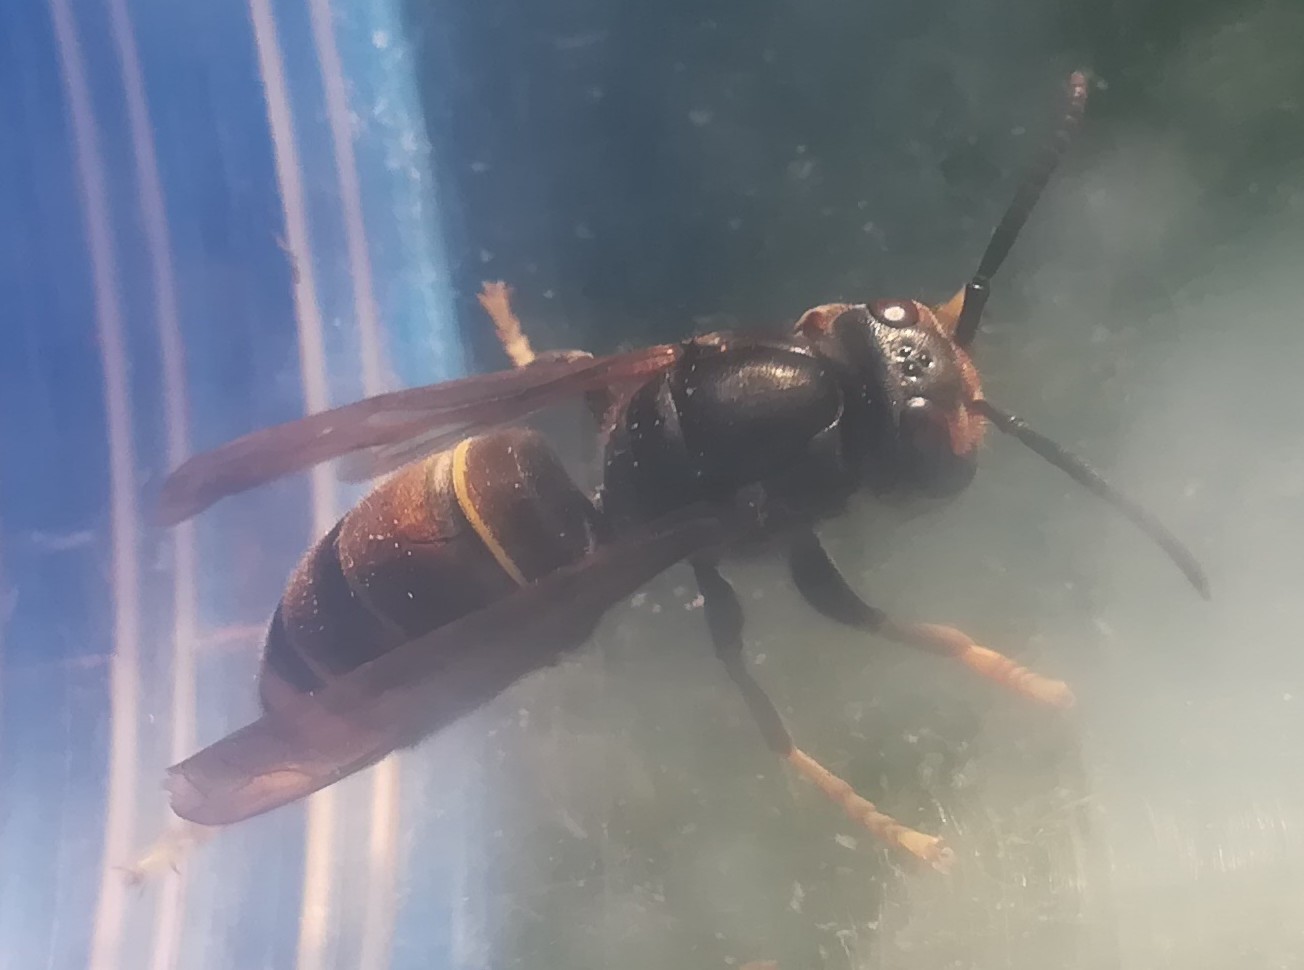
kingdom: Animalia
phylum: Arthropoda
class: Insecta
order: Hymenoptera
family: Vespidae
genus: Vespa
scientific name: Vespa velutina
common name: Asian hornet
